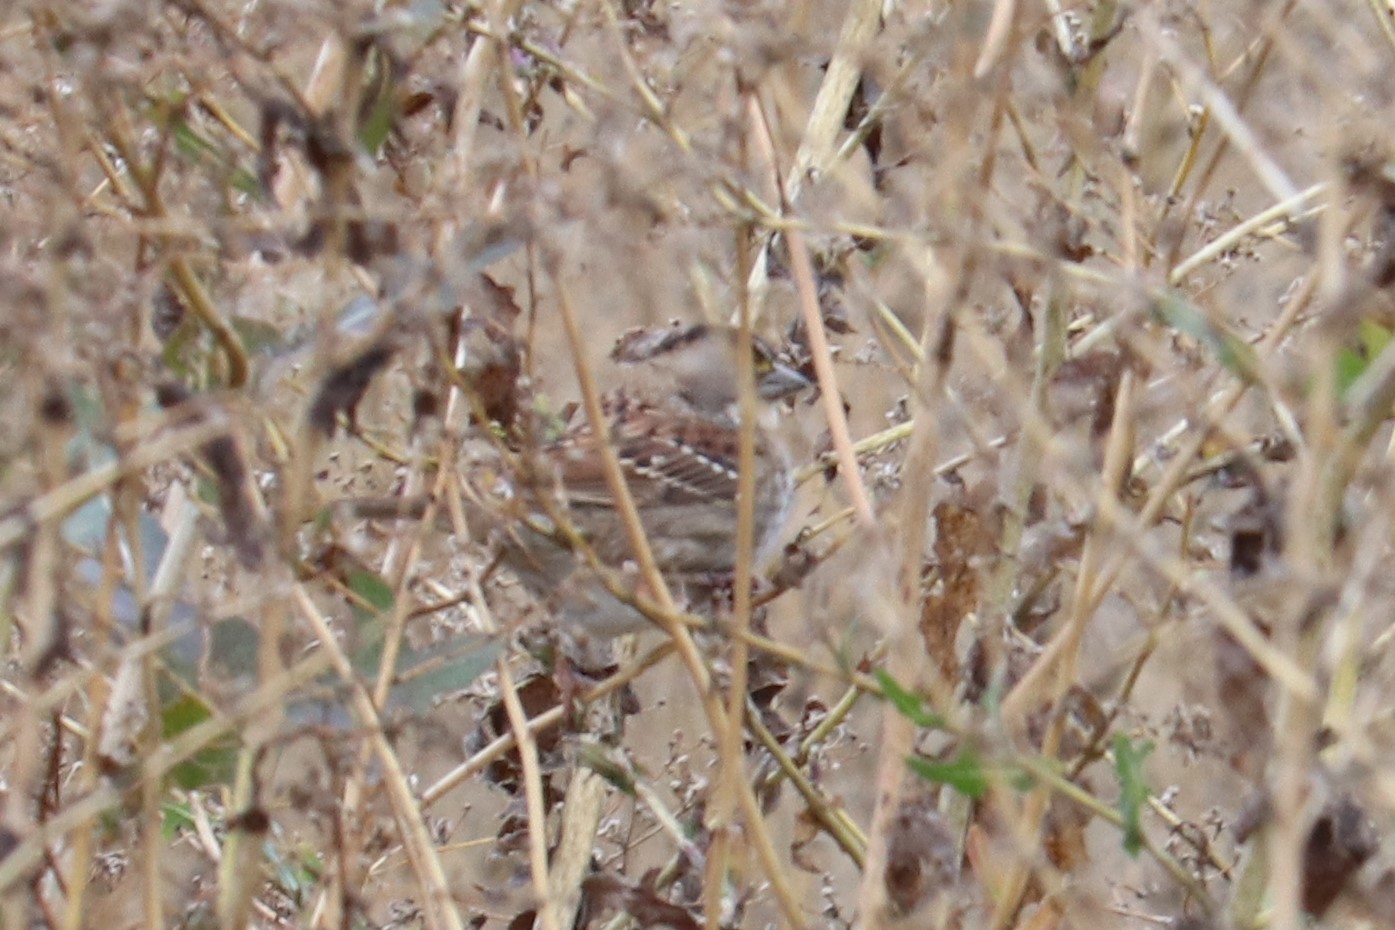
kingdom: Animalia
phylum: Chordata
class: Aves
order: Passeriformes
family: Passerellidae
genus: Zonotrichia
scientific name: Zonotrichia albicollis
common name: White-throated sparrow
